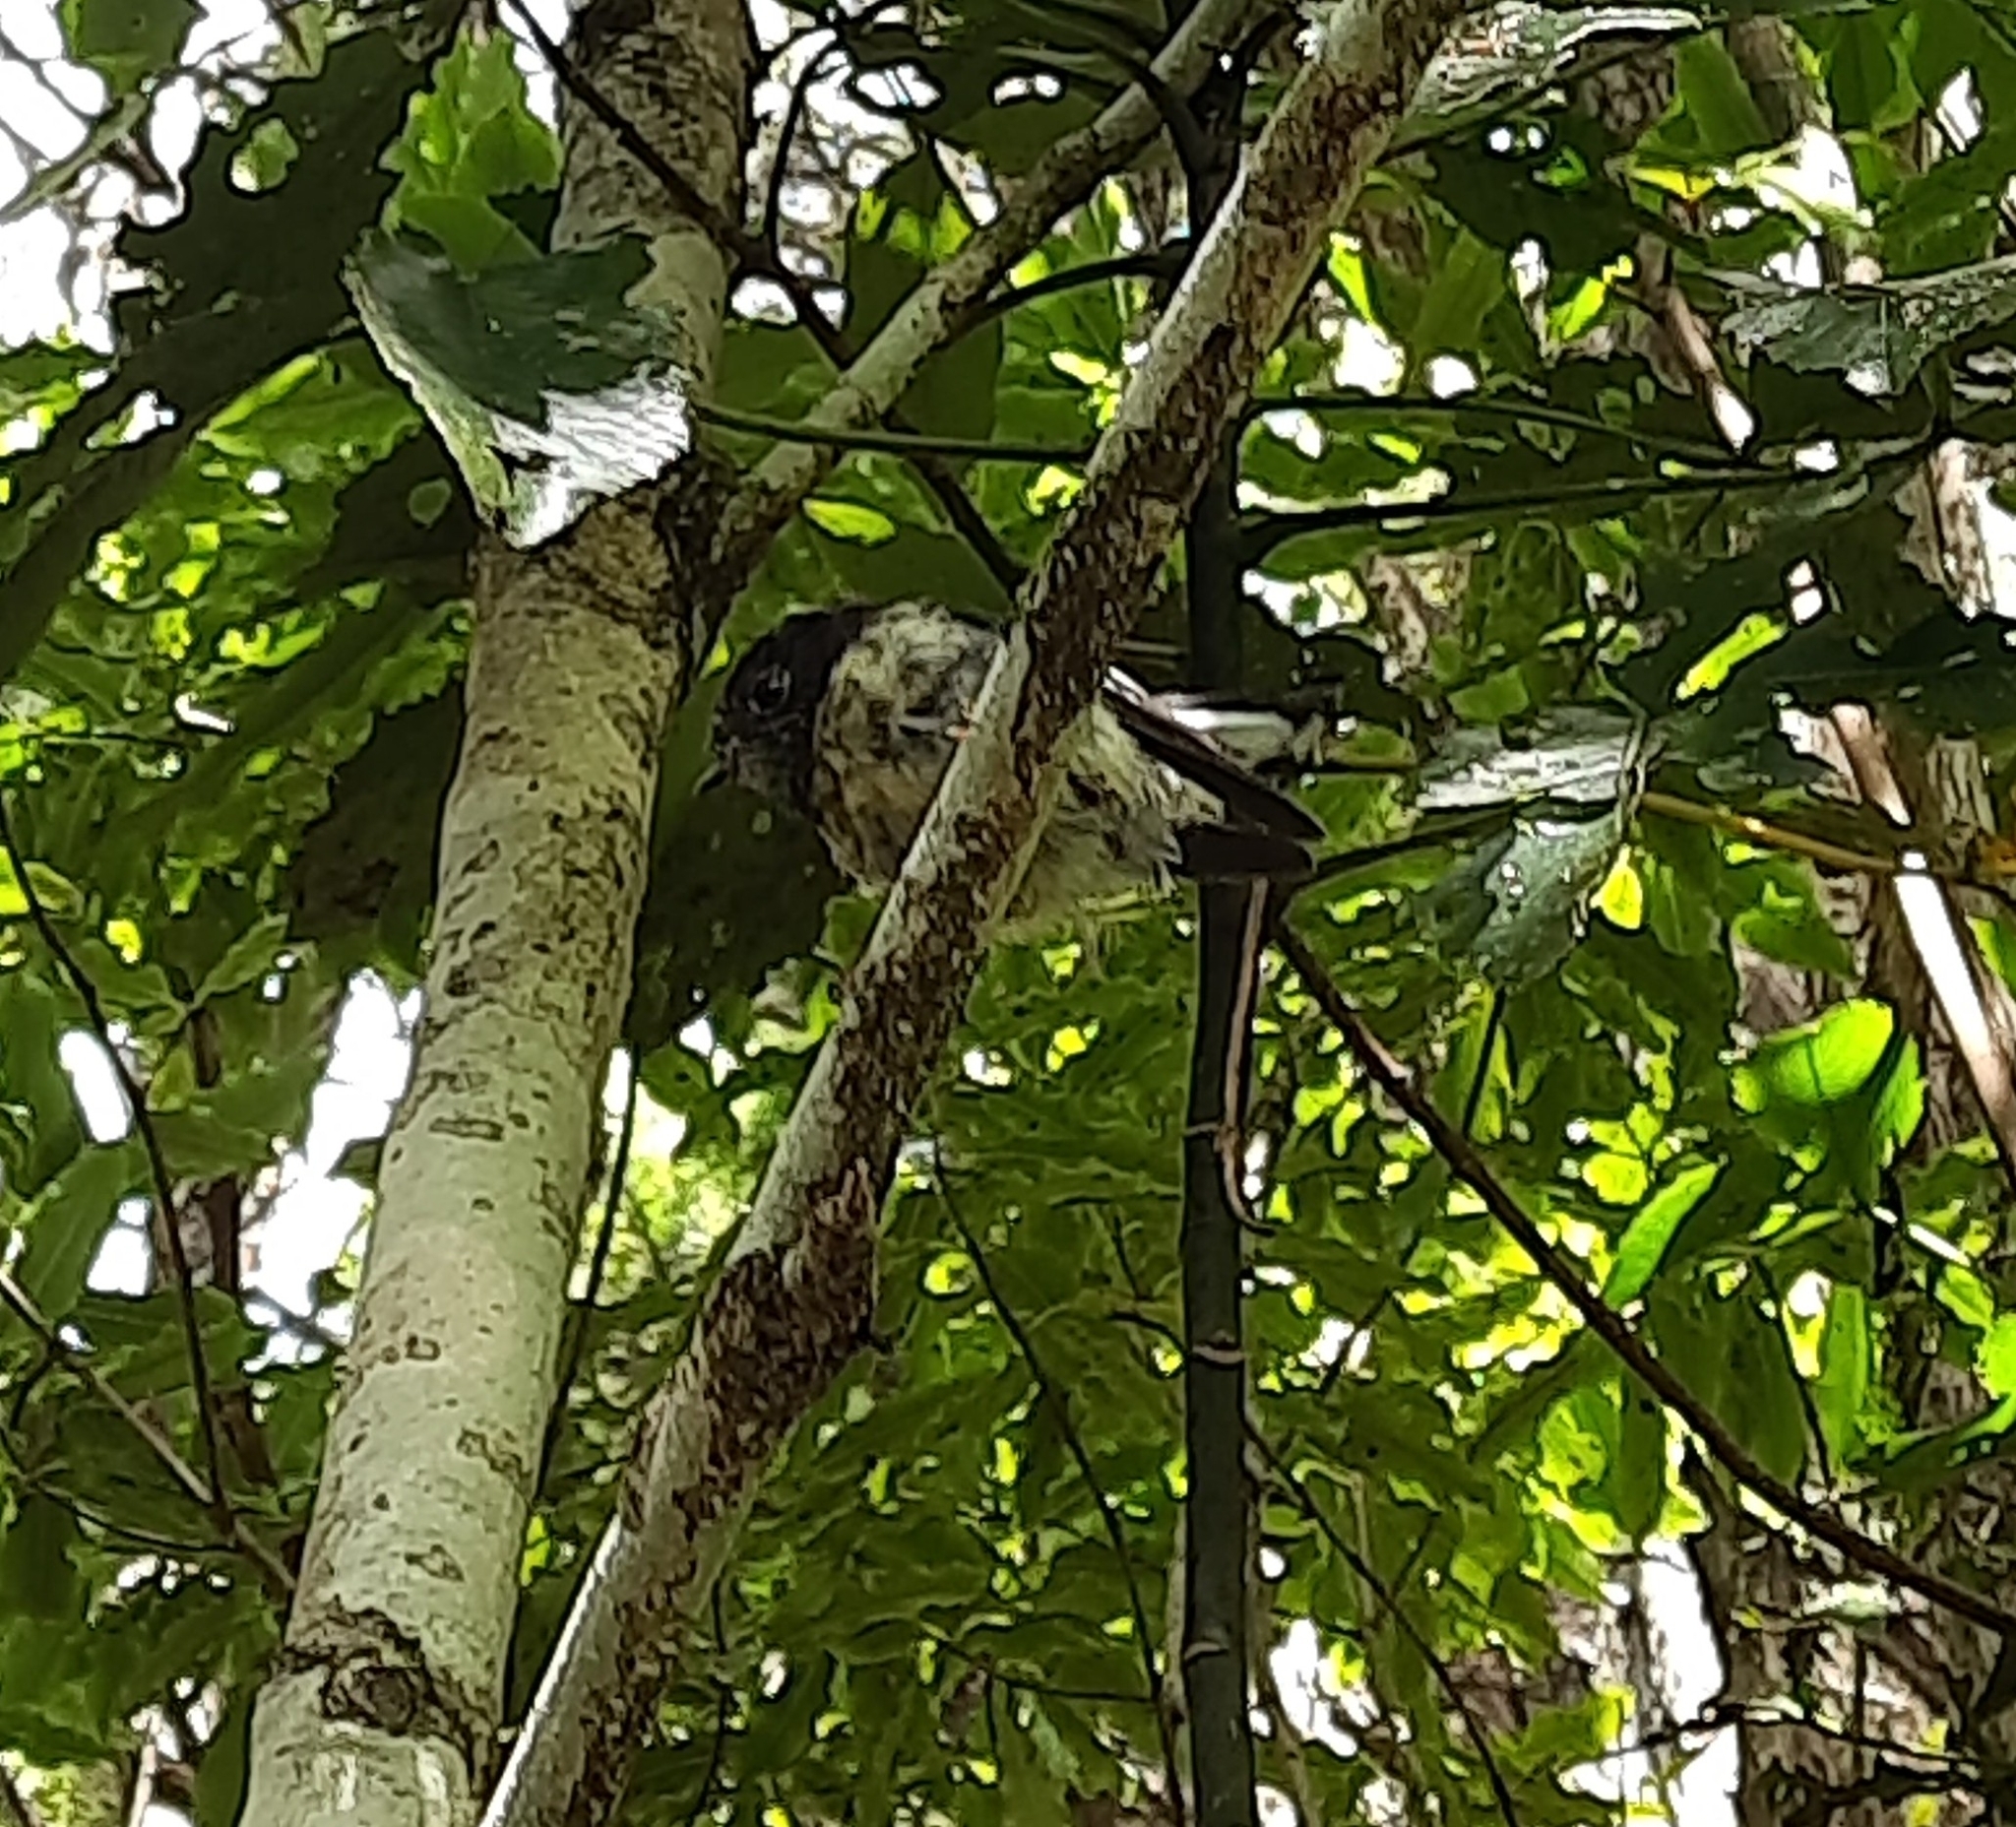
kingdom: Animalia
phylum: Chordata
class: Aves
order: Passeriformes
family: Petroicidae
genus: Petroica
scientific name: Petroica macrocephala
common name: Tomtit
